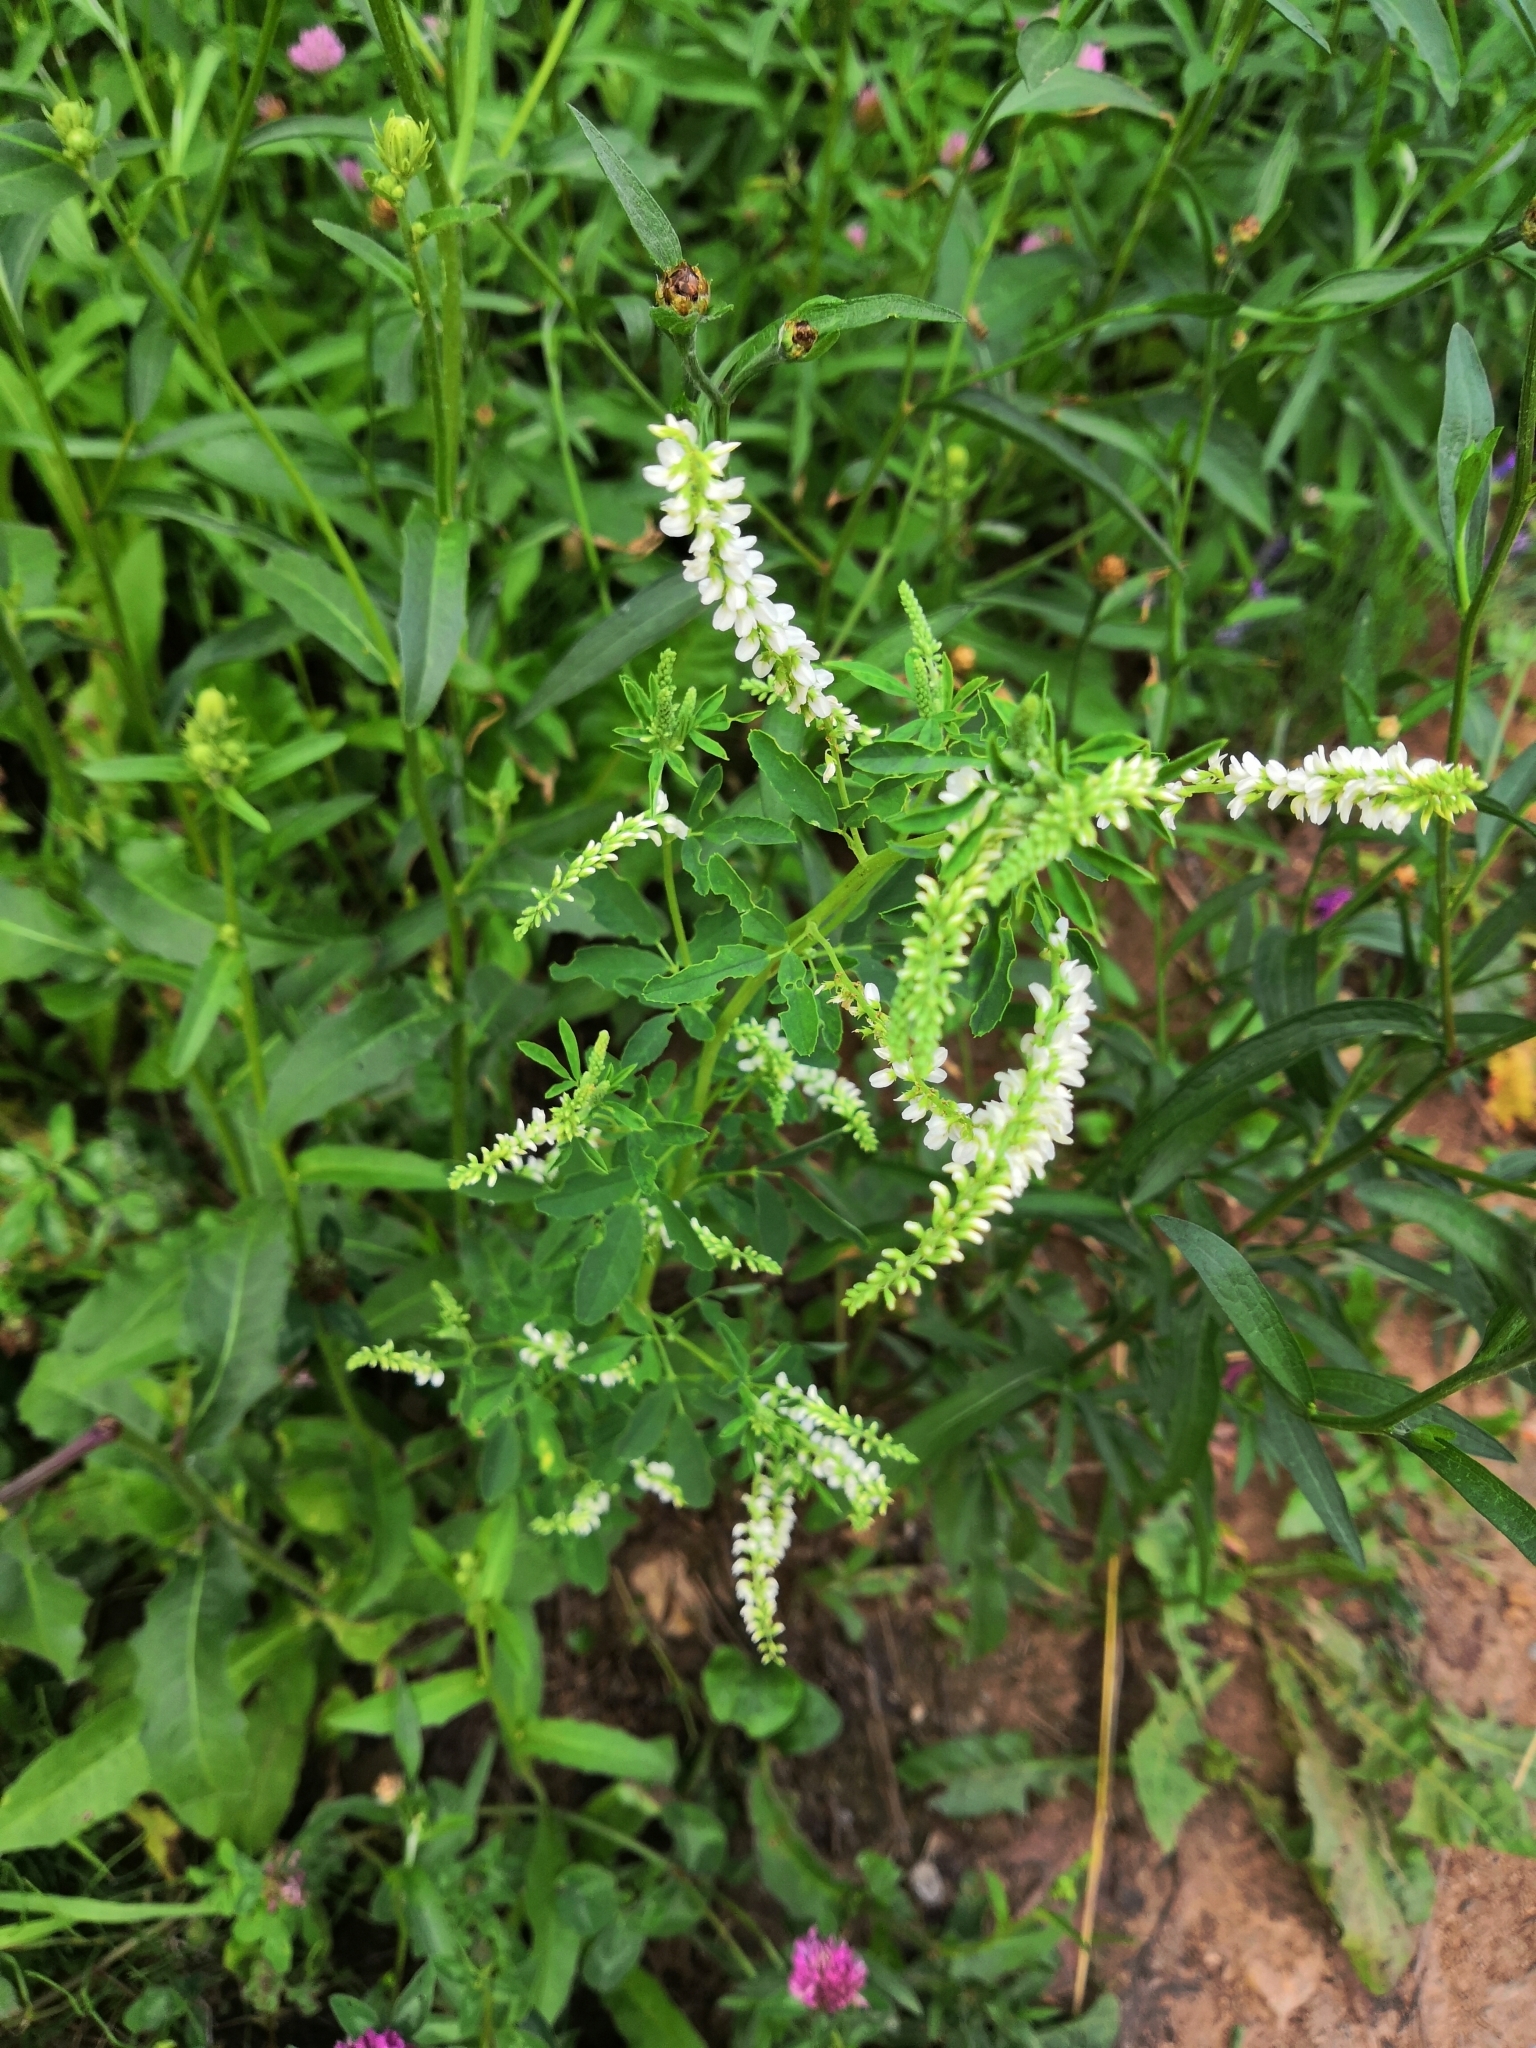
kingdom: Plantae
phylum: Tracheophyta
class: Magnoliopsida
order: Fabales
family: Fabaceae
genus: Melilotus
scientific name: Melilotus albus
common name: White melilot
